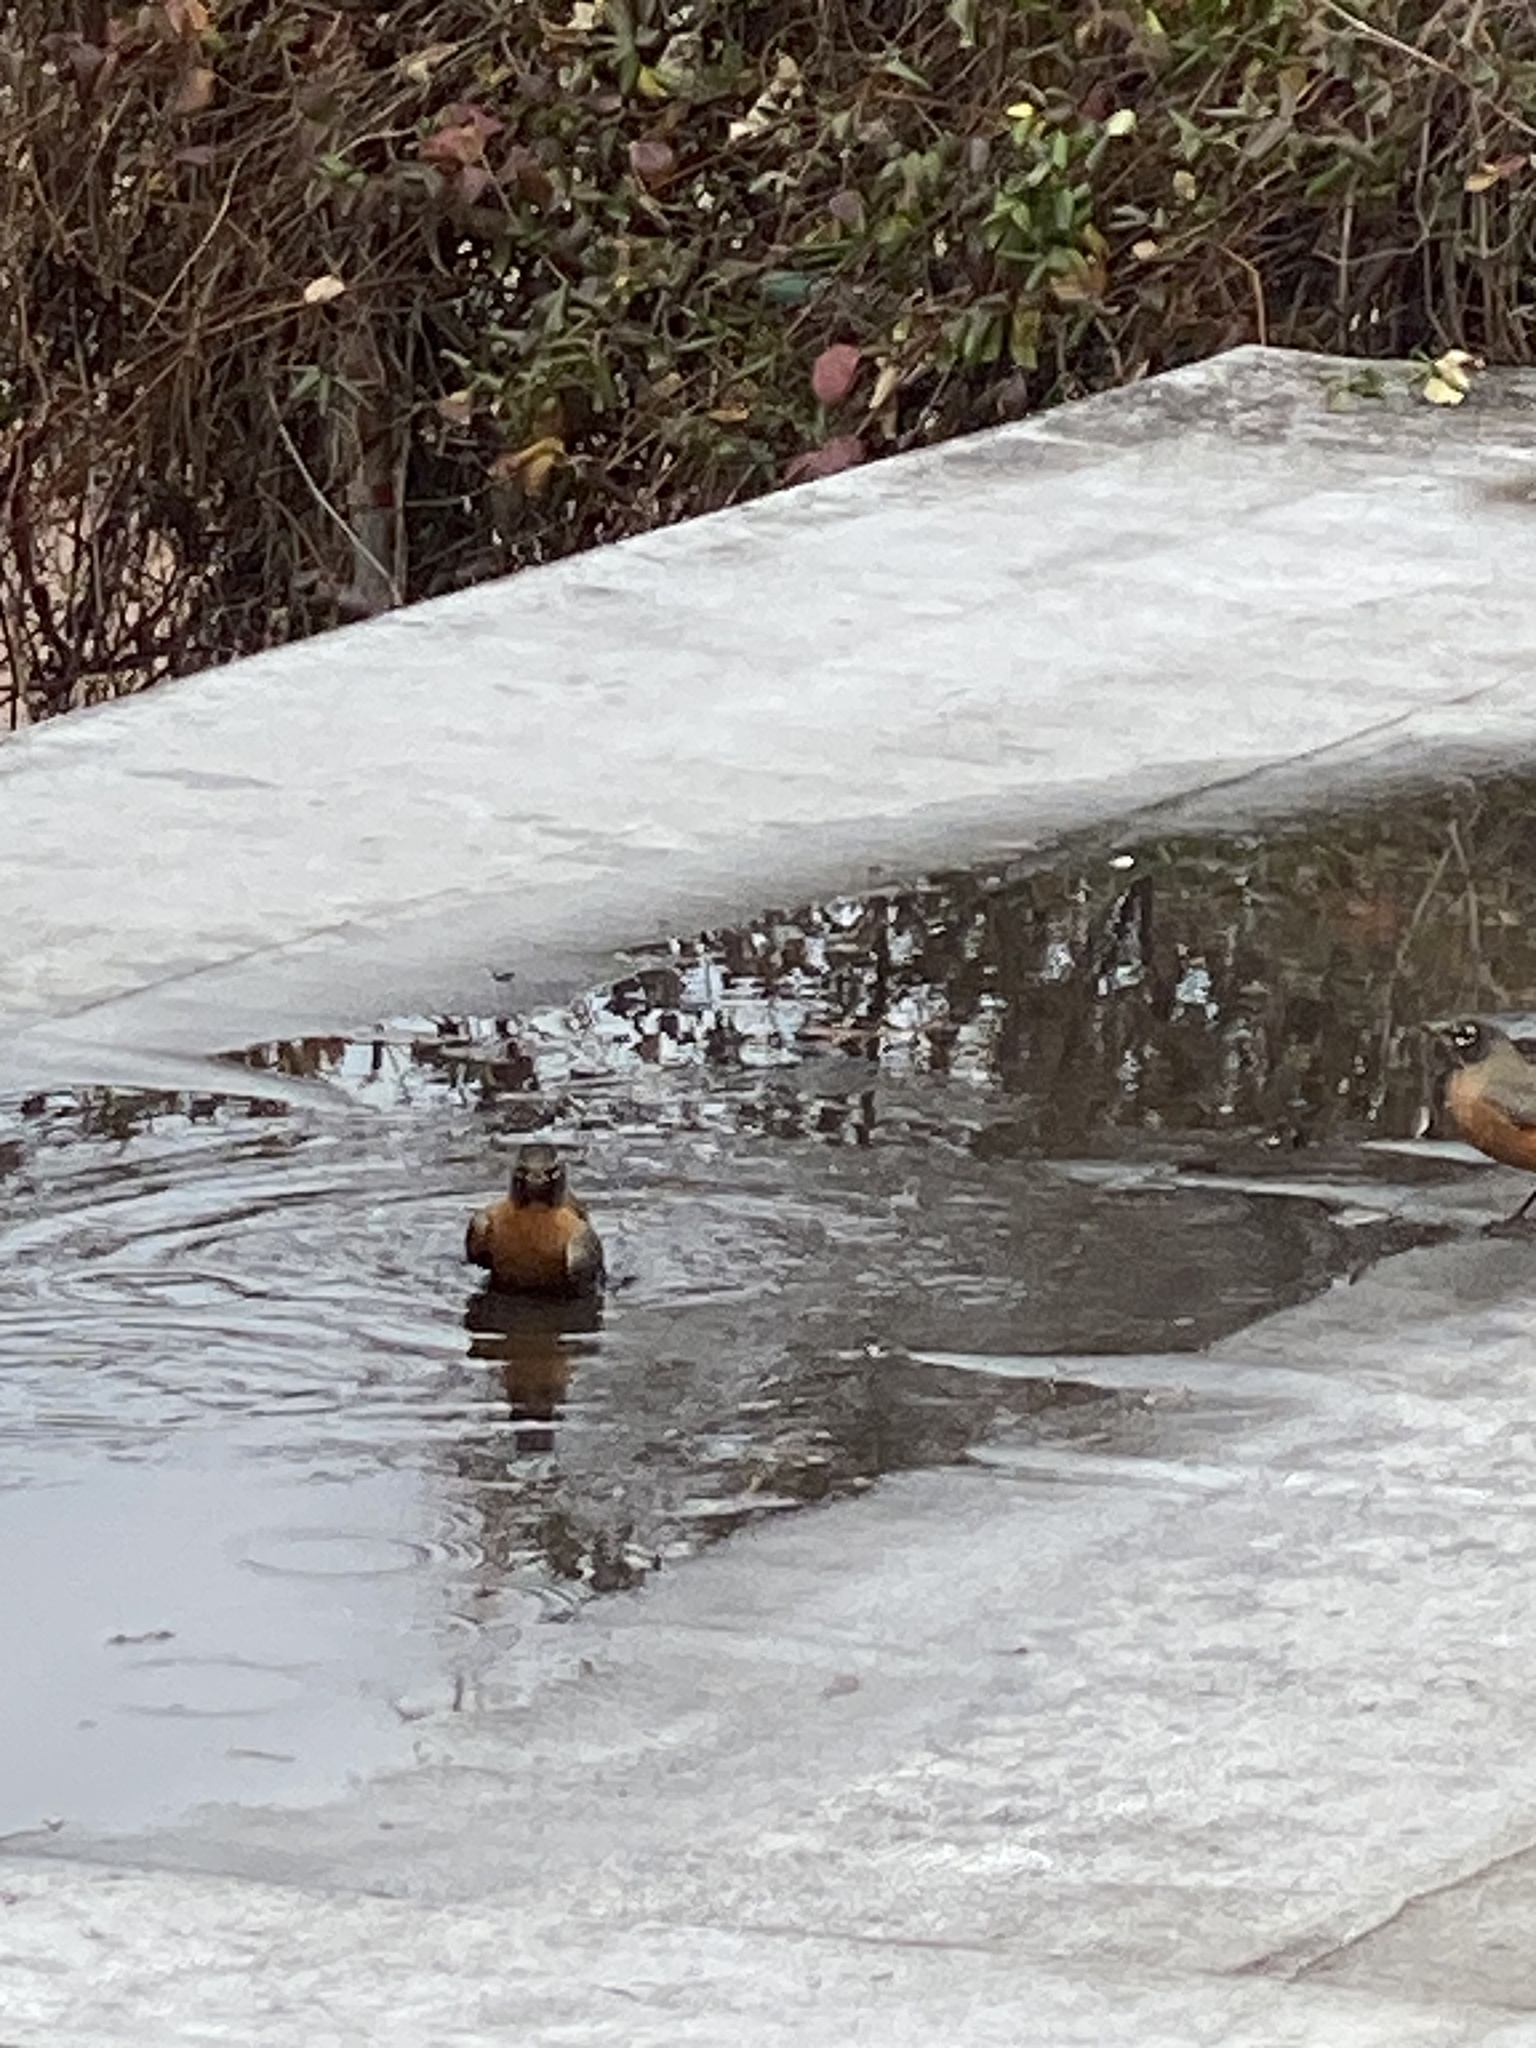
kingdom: Animalia
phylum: Chordata
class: Aves
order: Passeriformes
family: Turdidae
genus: Turdus
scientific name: Turdus migratorius
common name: American robin
